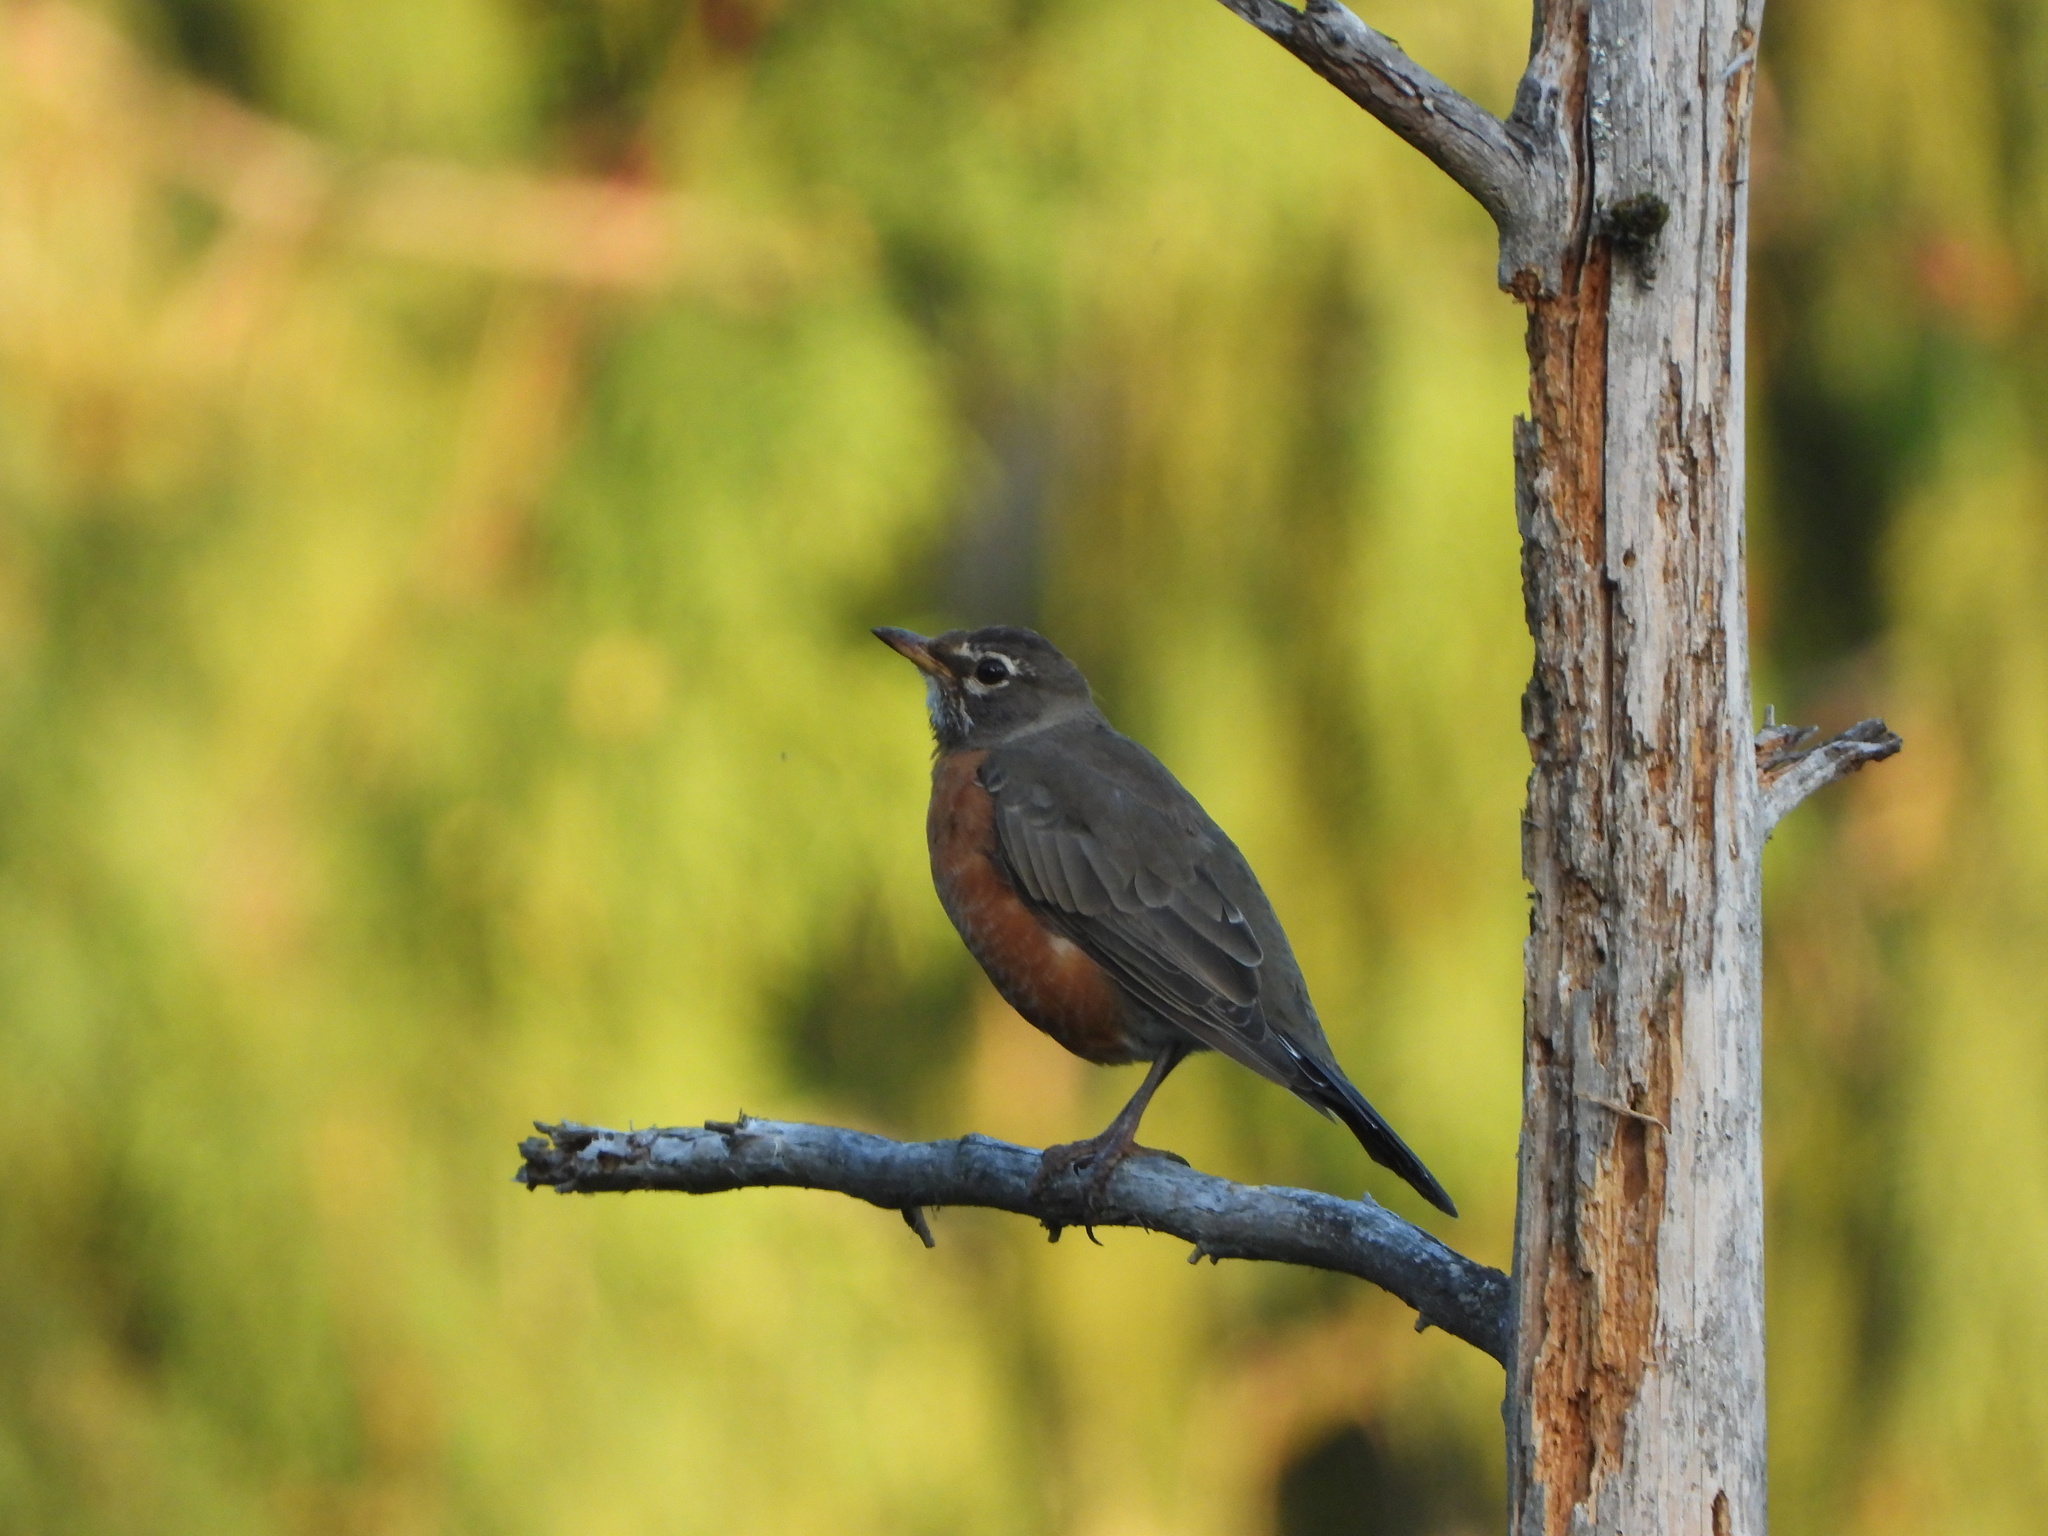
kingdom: Animalia
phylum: Chordata
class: Aves
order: Passeriformes
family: Turdidae
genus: Turdus
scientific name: Turdus migratorius
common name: American robin
